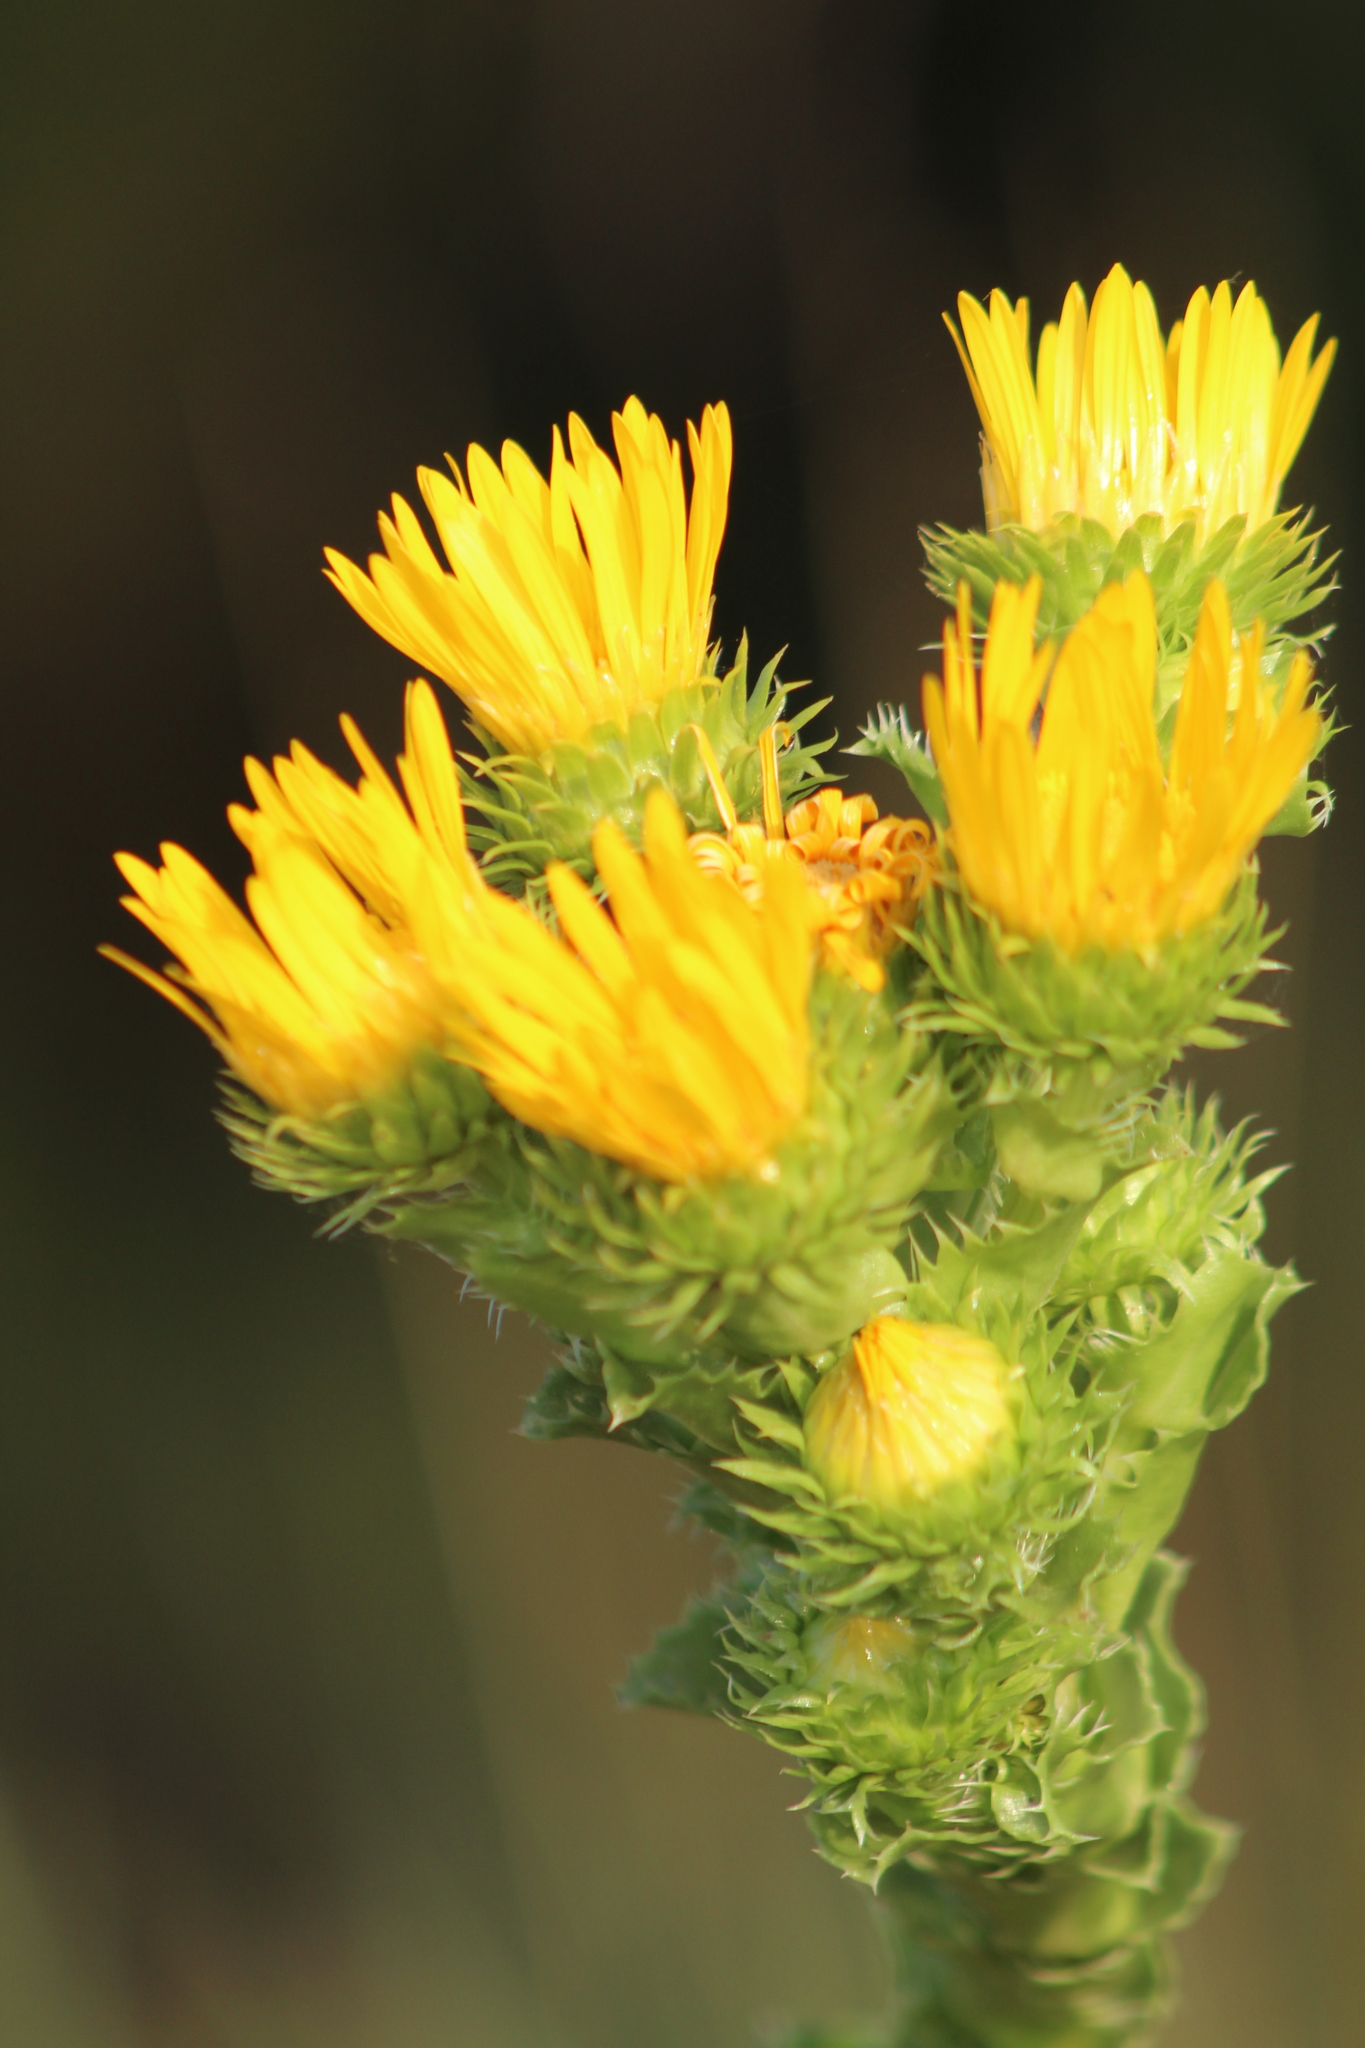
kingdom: Plantae
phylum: Tracheophyta
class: Magnoliopsida
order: Asterales
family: Asteraceae
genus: Grindelia
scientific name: Grindelia ciliata
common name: Goldenweed
